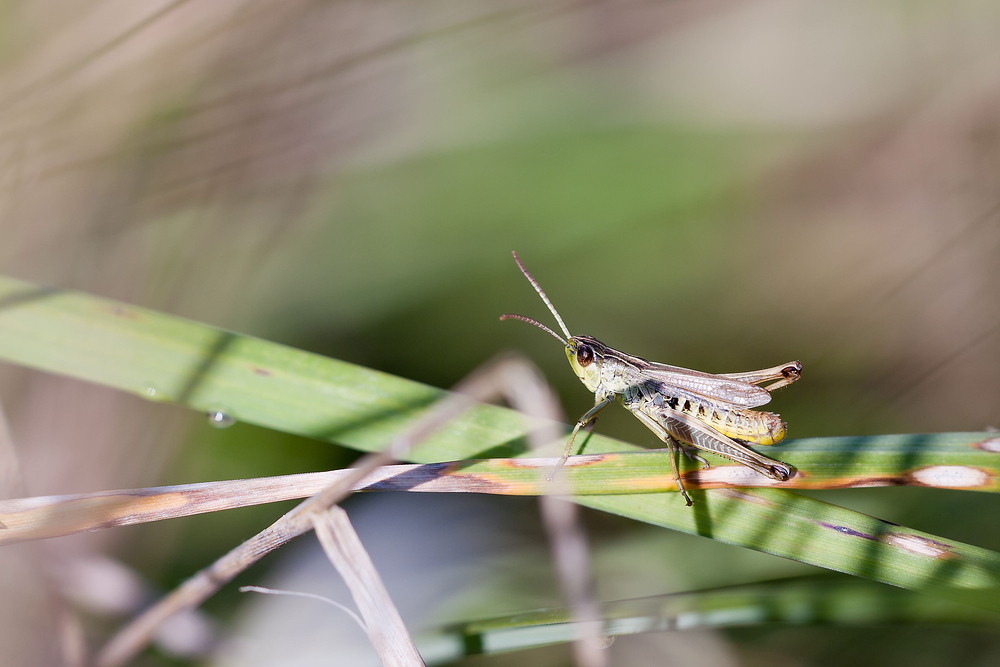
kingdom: Animalia
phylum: Arthropoda
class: Insecta
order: Orthoptera
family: Acrididae
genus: Pseudochorthippus
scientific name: Pseudochorthippus parallelus
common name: Meadow grasshopper
